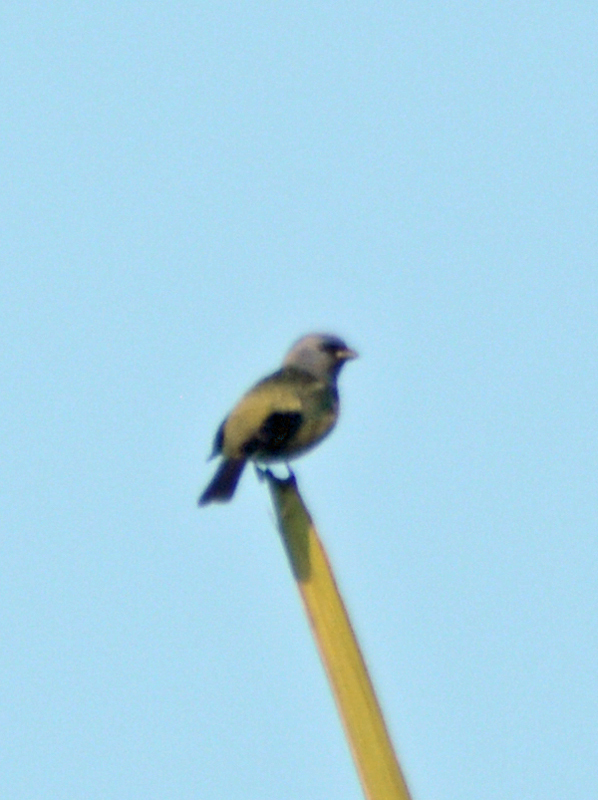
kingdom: Animalia
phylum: Chordata
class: Aves
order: Passeriformes
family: Thraupidae
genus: Thraupis
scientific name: Thraupis abbas
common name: Yellow-winged tanager
